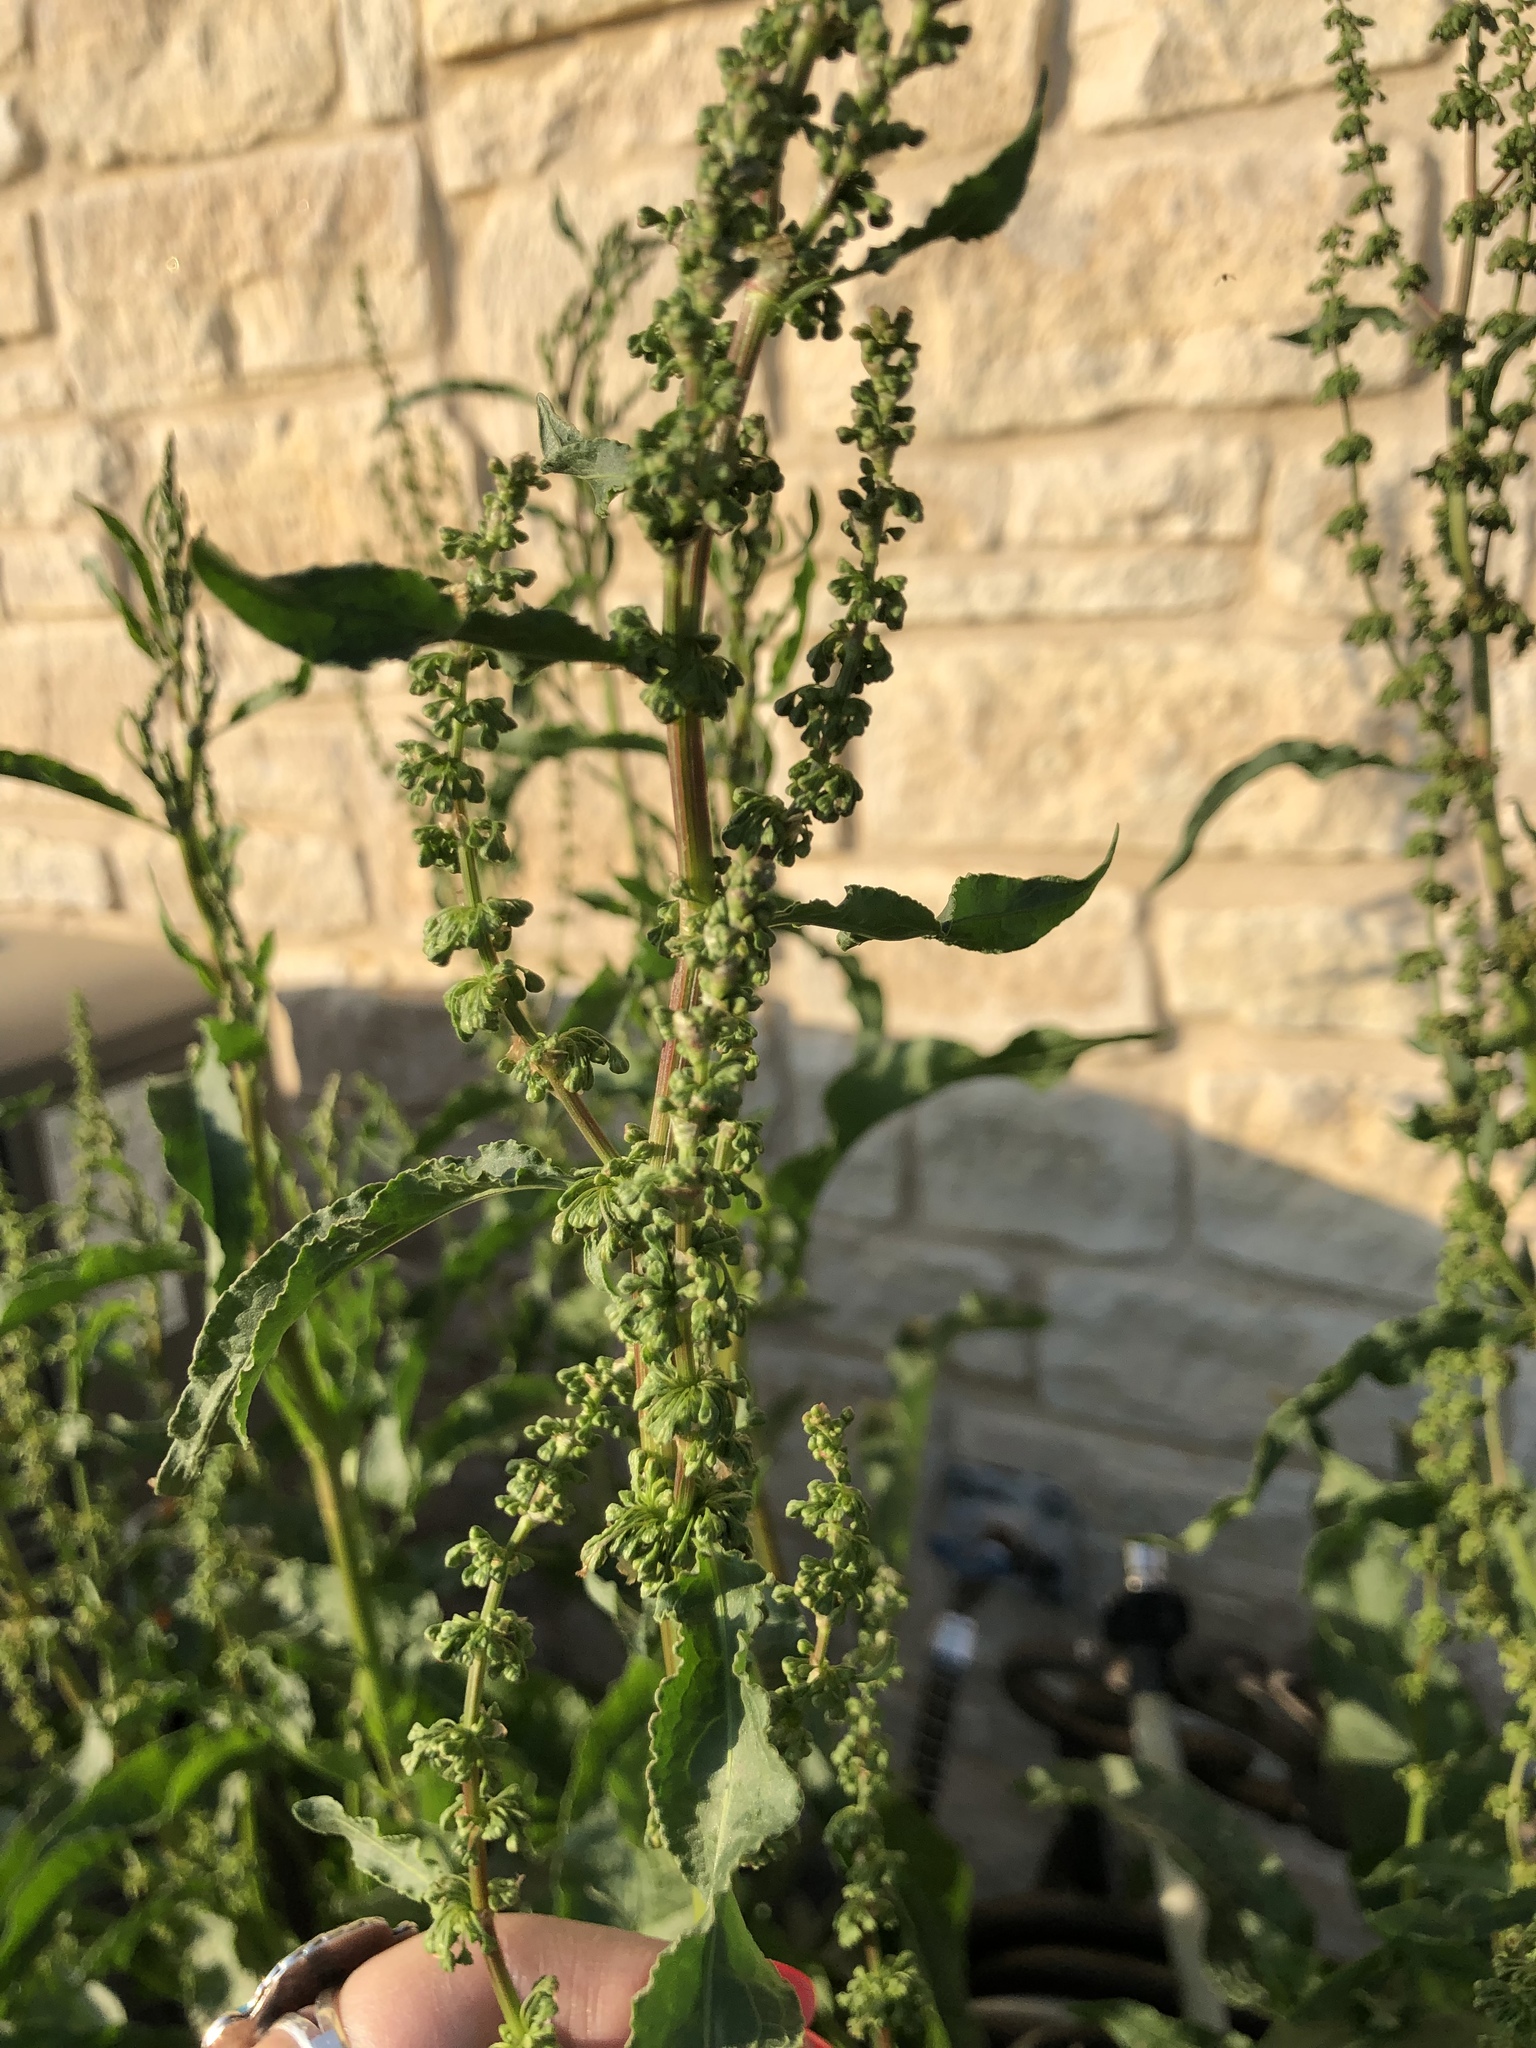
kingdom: Plantae
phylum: Tracheophyta
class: Magnoliopsida
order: Caryophyllales
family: Polygonaceae
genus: Rumex
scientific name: Rumex crispus
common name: Curled dock
